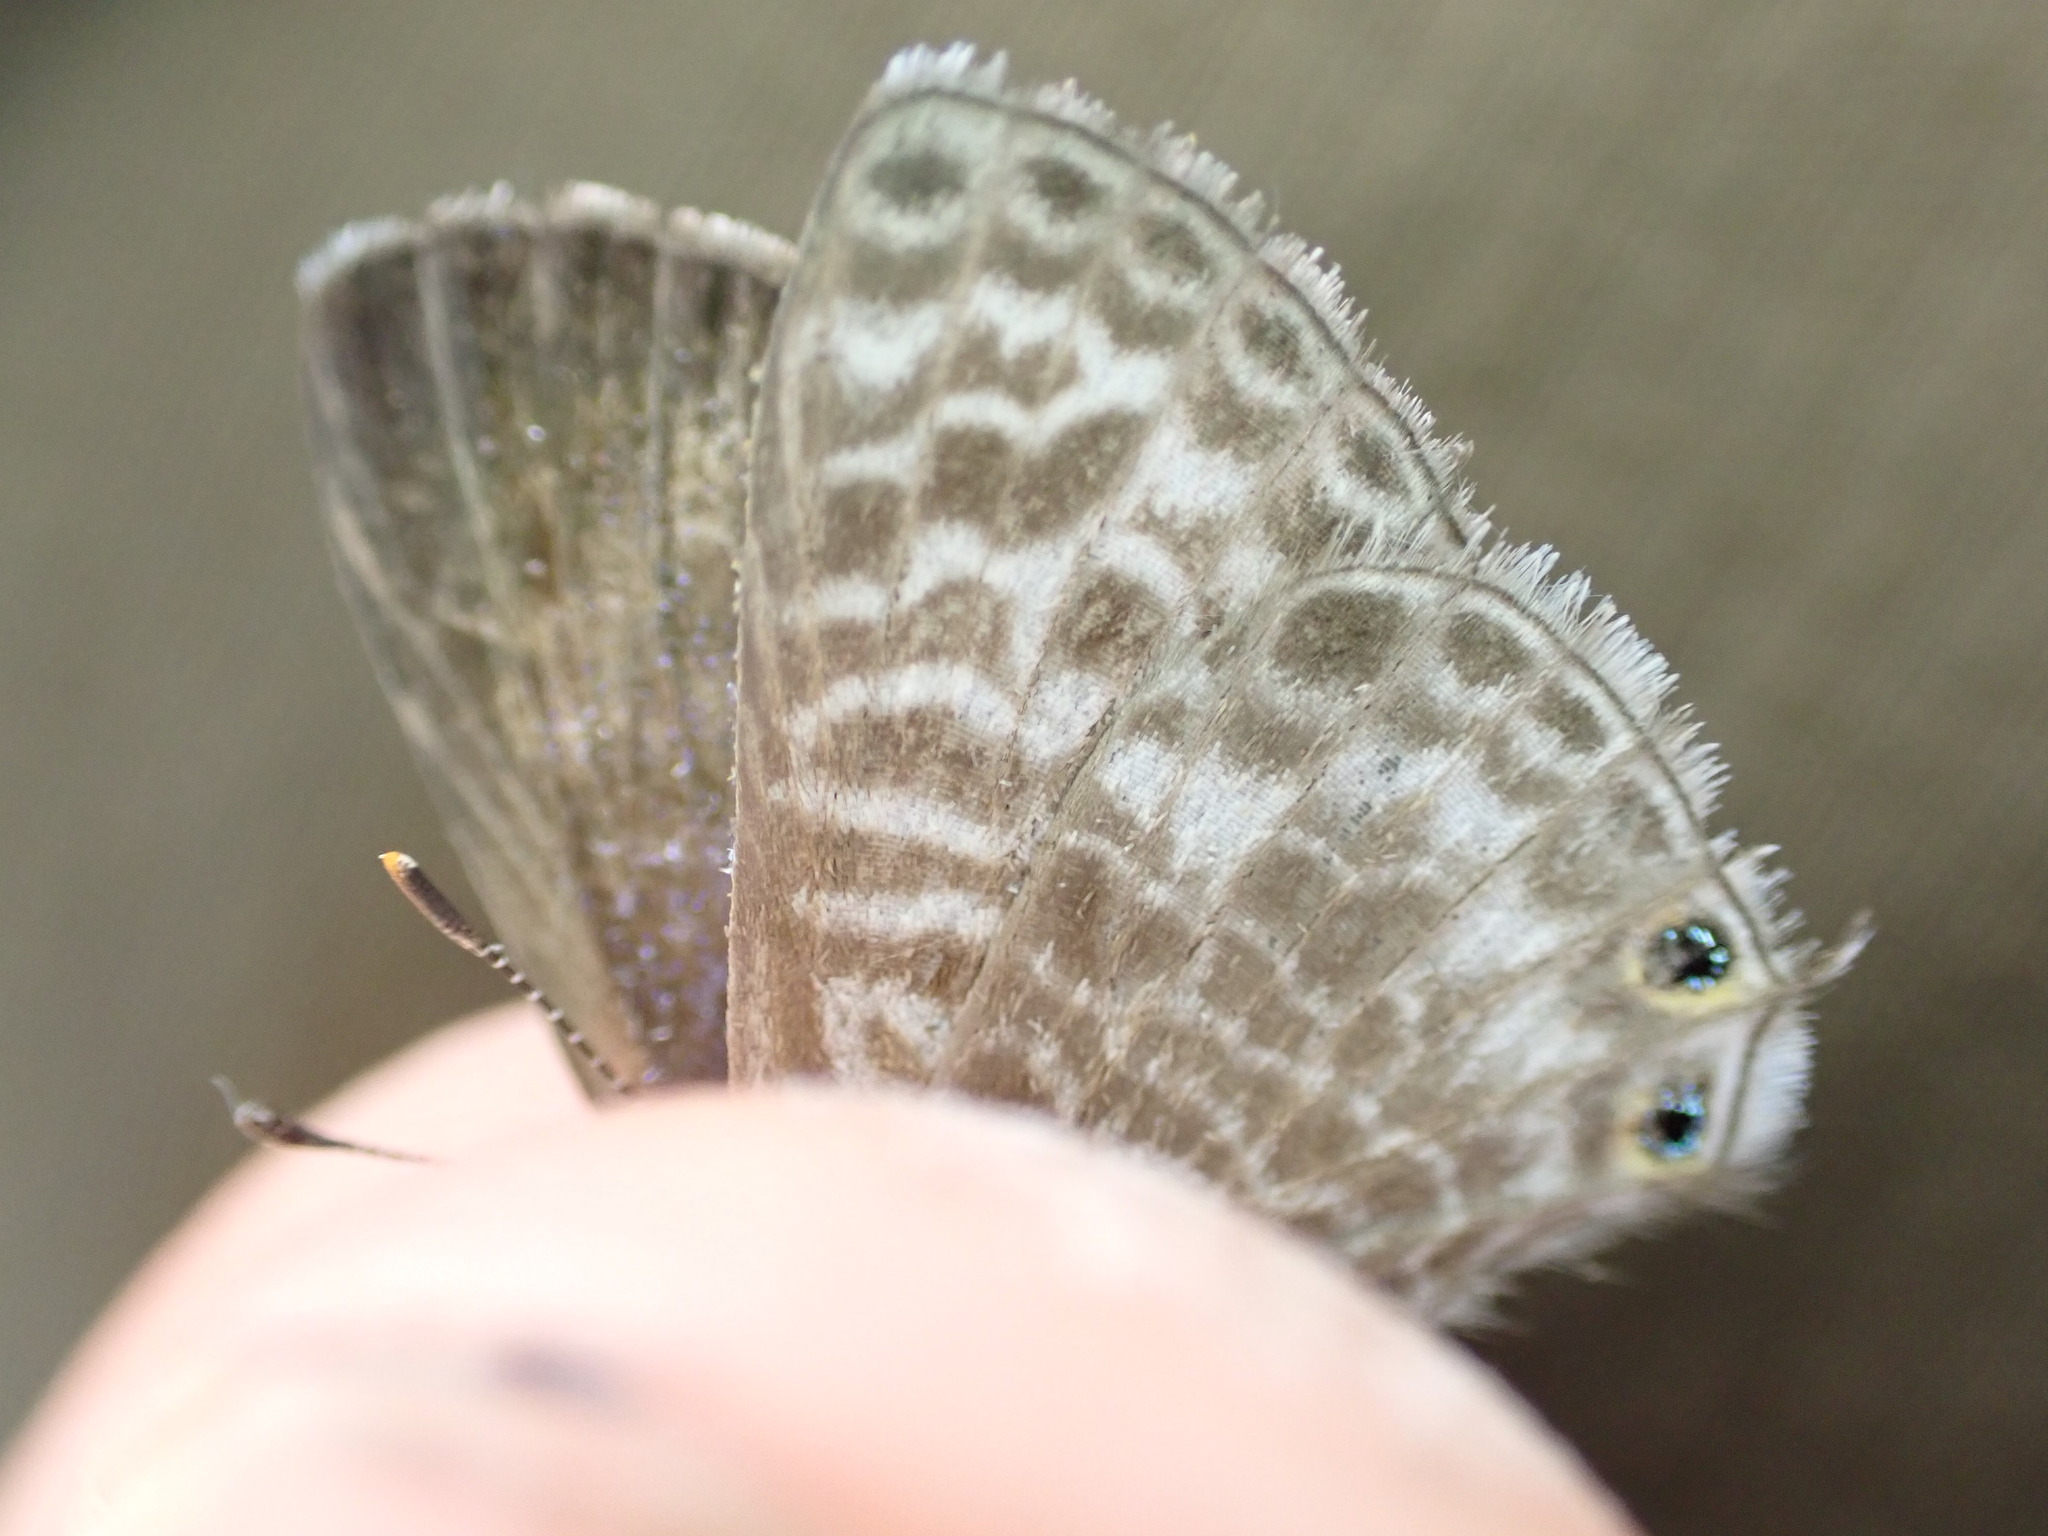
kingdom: Animalia
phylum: Arthropoda
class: Insecta
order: Lepidoptera
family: Lycaenidae
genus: Leptotes
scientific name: Leptotes pirithous
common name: Lang's short-tailed blue
